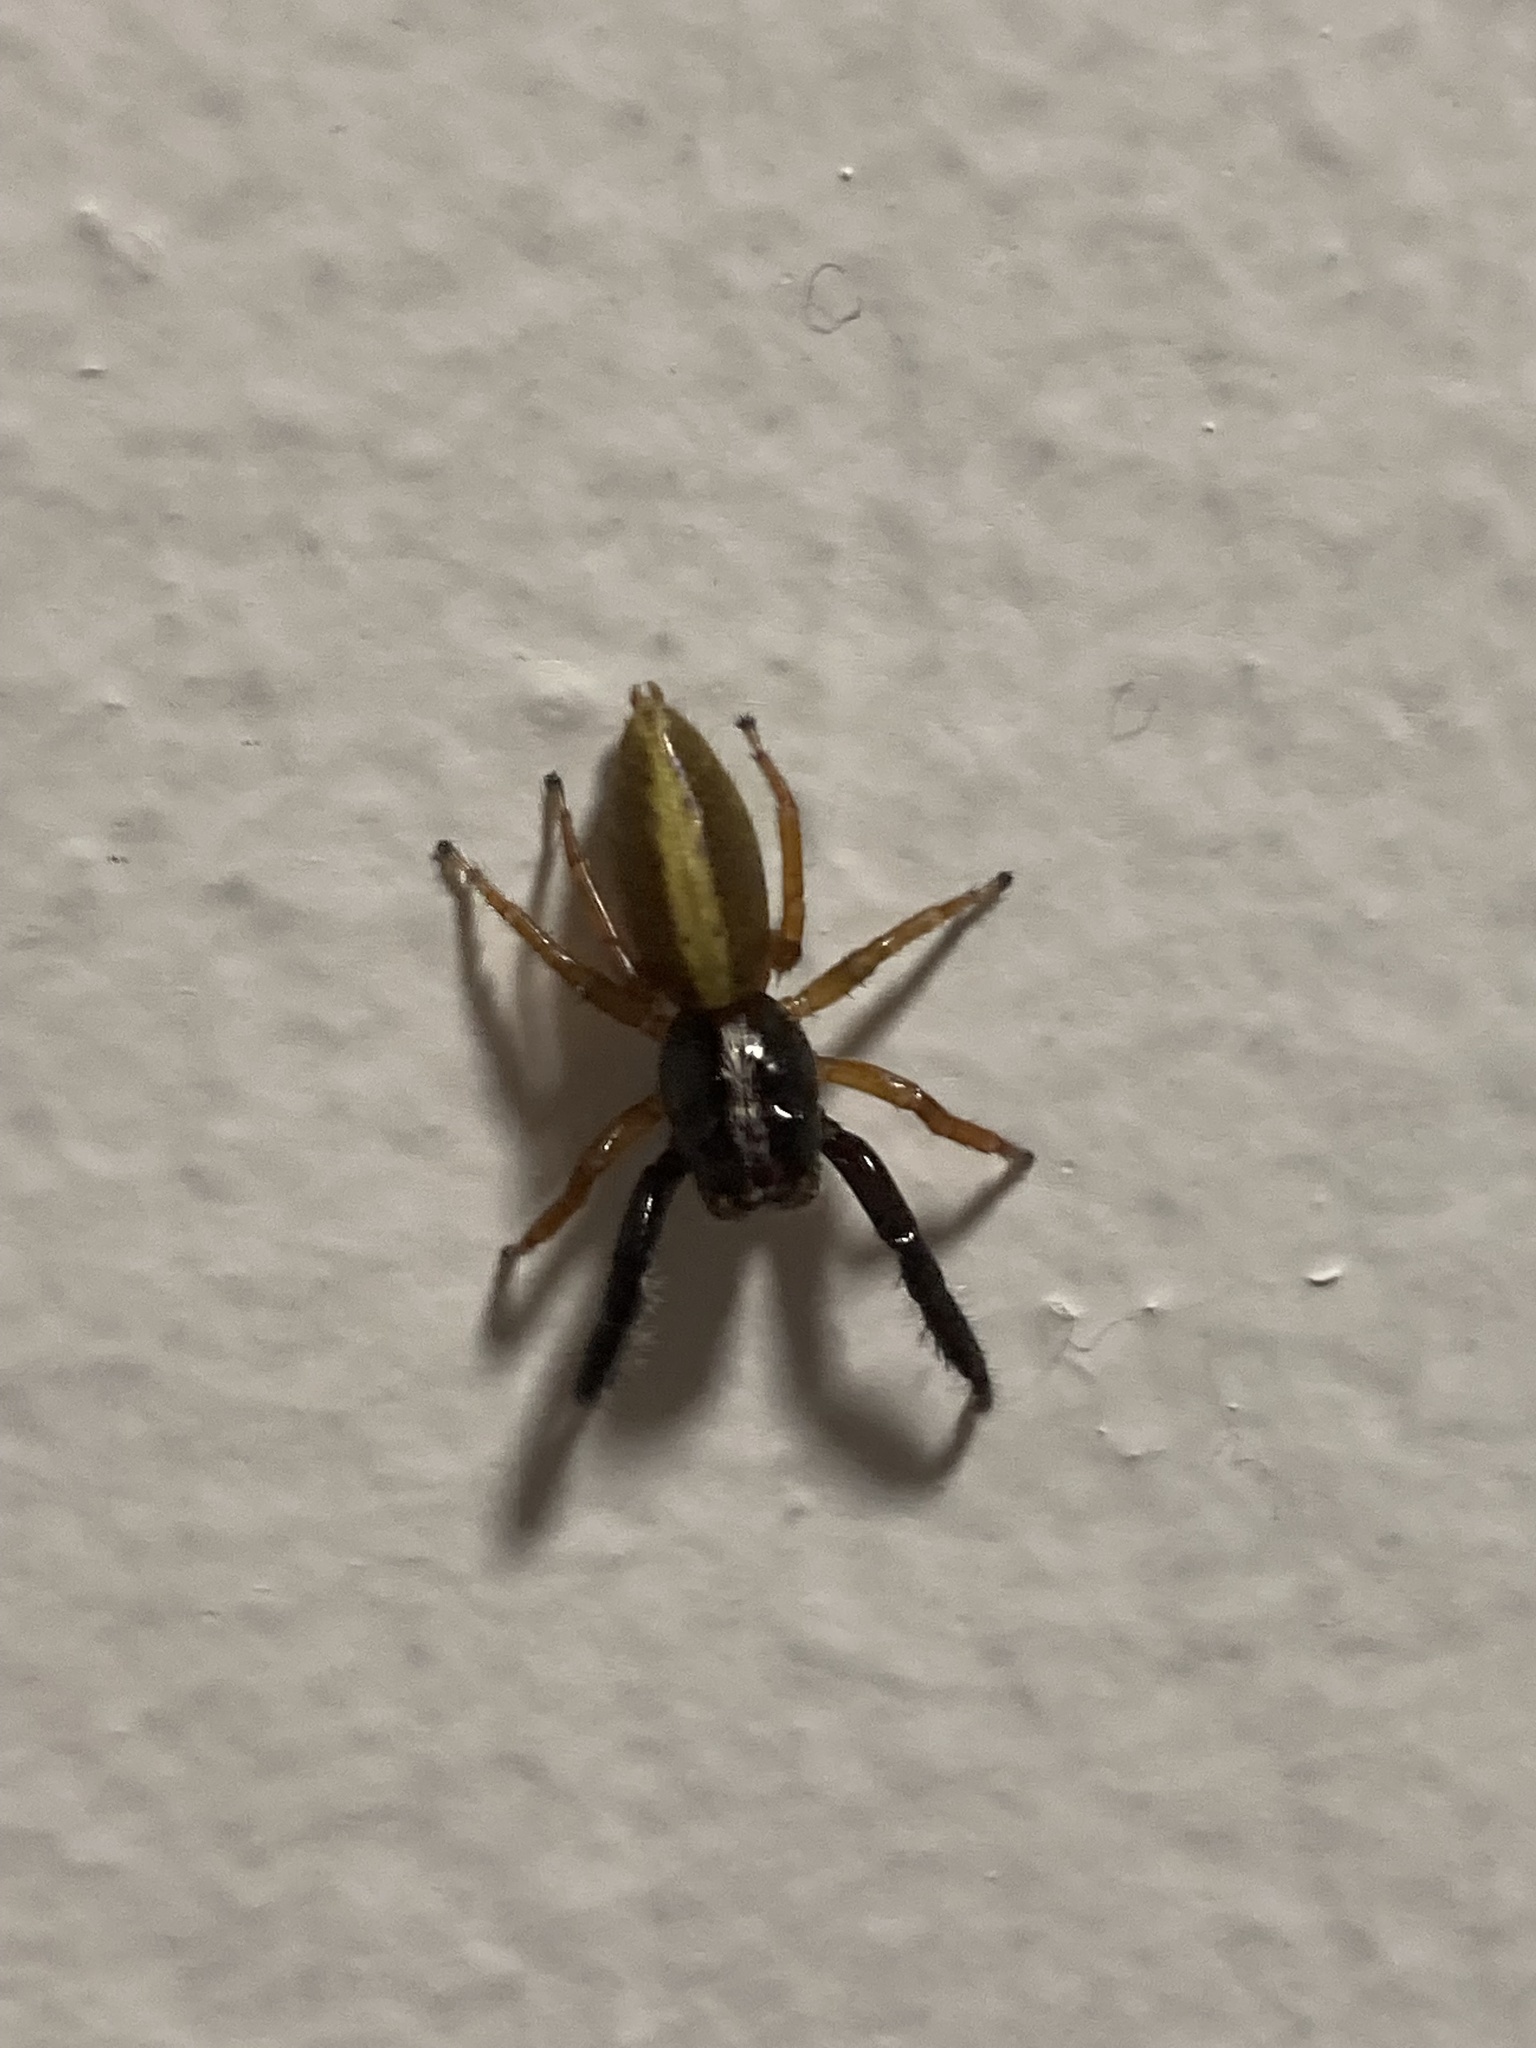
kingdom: Animalia
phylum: Arthropoda
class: Arachnida
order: Araneae
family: Salticidae
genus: Trite
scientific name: Trite planiceps
